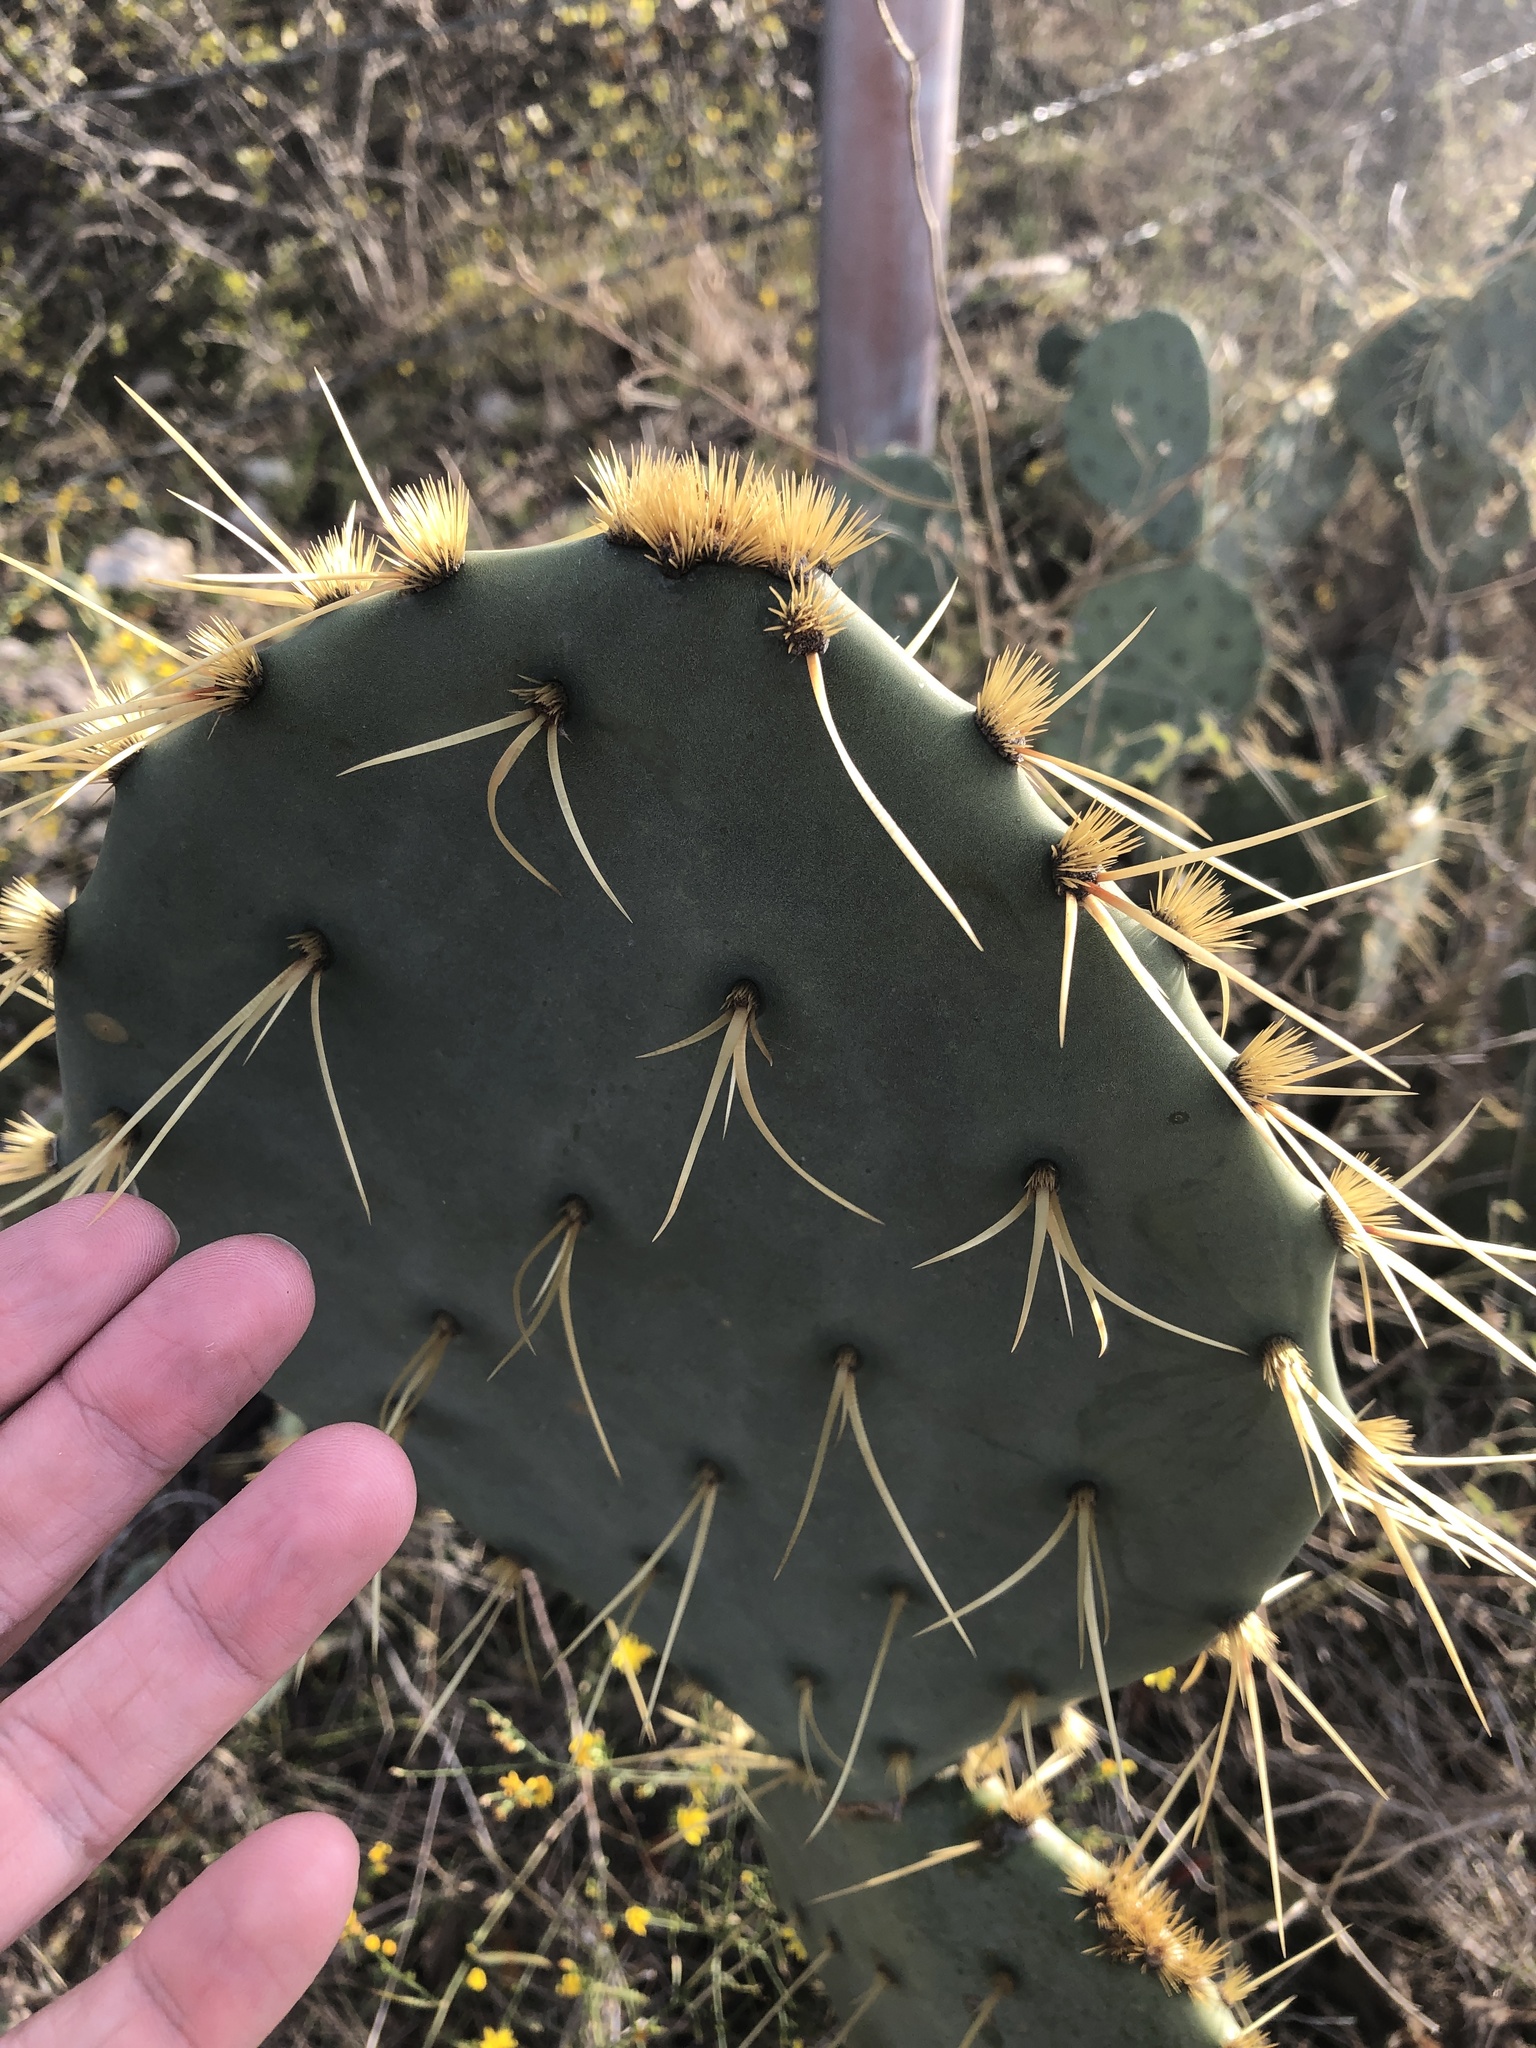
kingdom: Plantae
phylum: Tracheophyta
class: Magnoliopsida
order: Caryophyllales
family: Cactaceae
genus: Opuntia
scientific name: Opuntia engelmannii
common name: Cactus-apple
